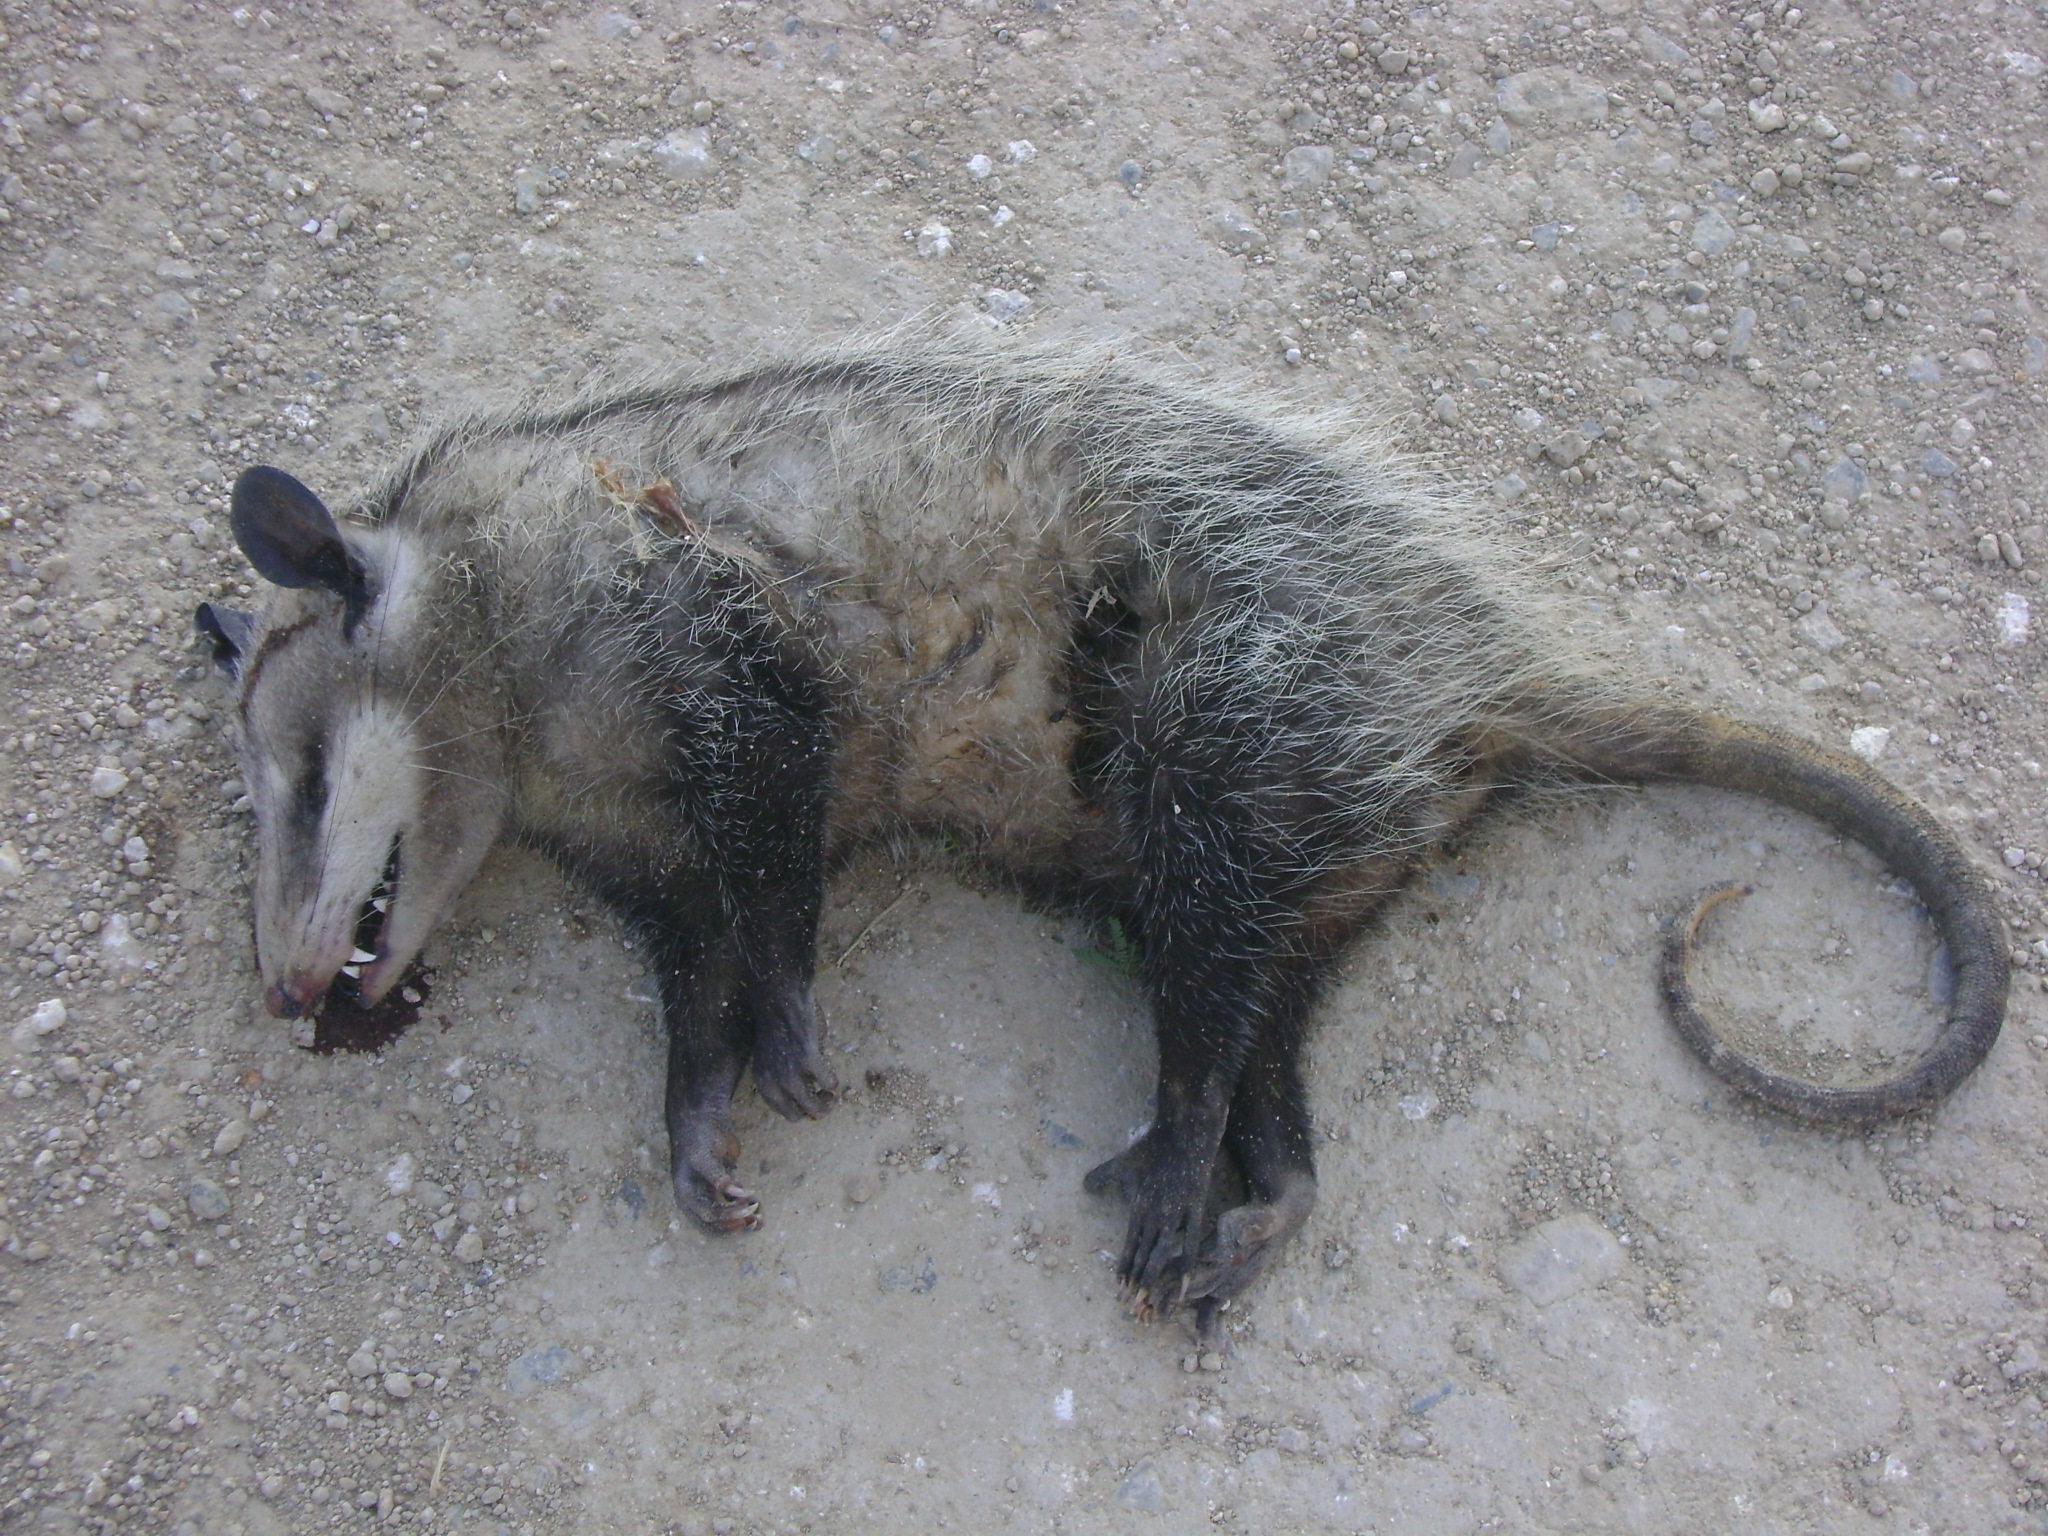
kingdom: Animalia
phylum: Chordata
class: Mammalia
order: Didelphimorphia
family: Didelphidae
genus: Didelphis
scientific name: Didelphis virginiana
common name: Virginia opossum
